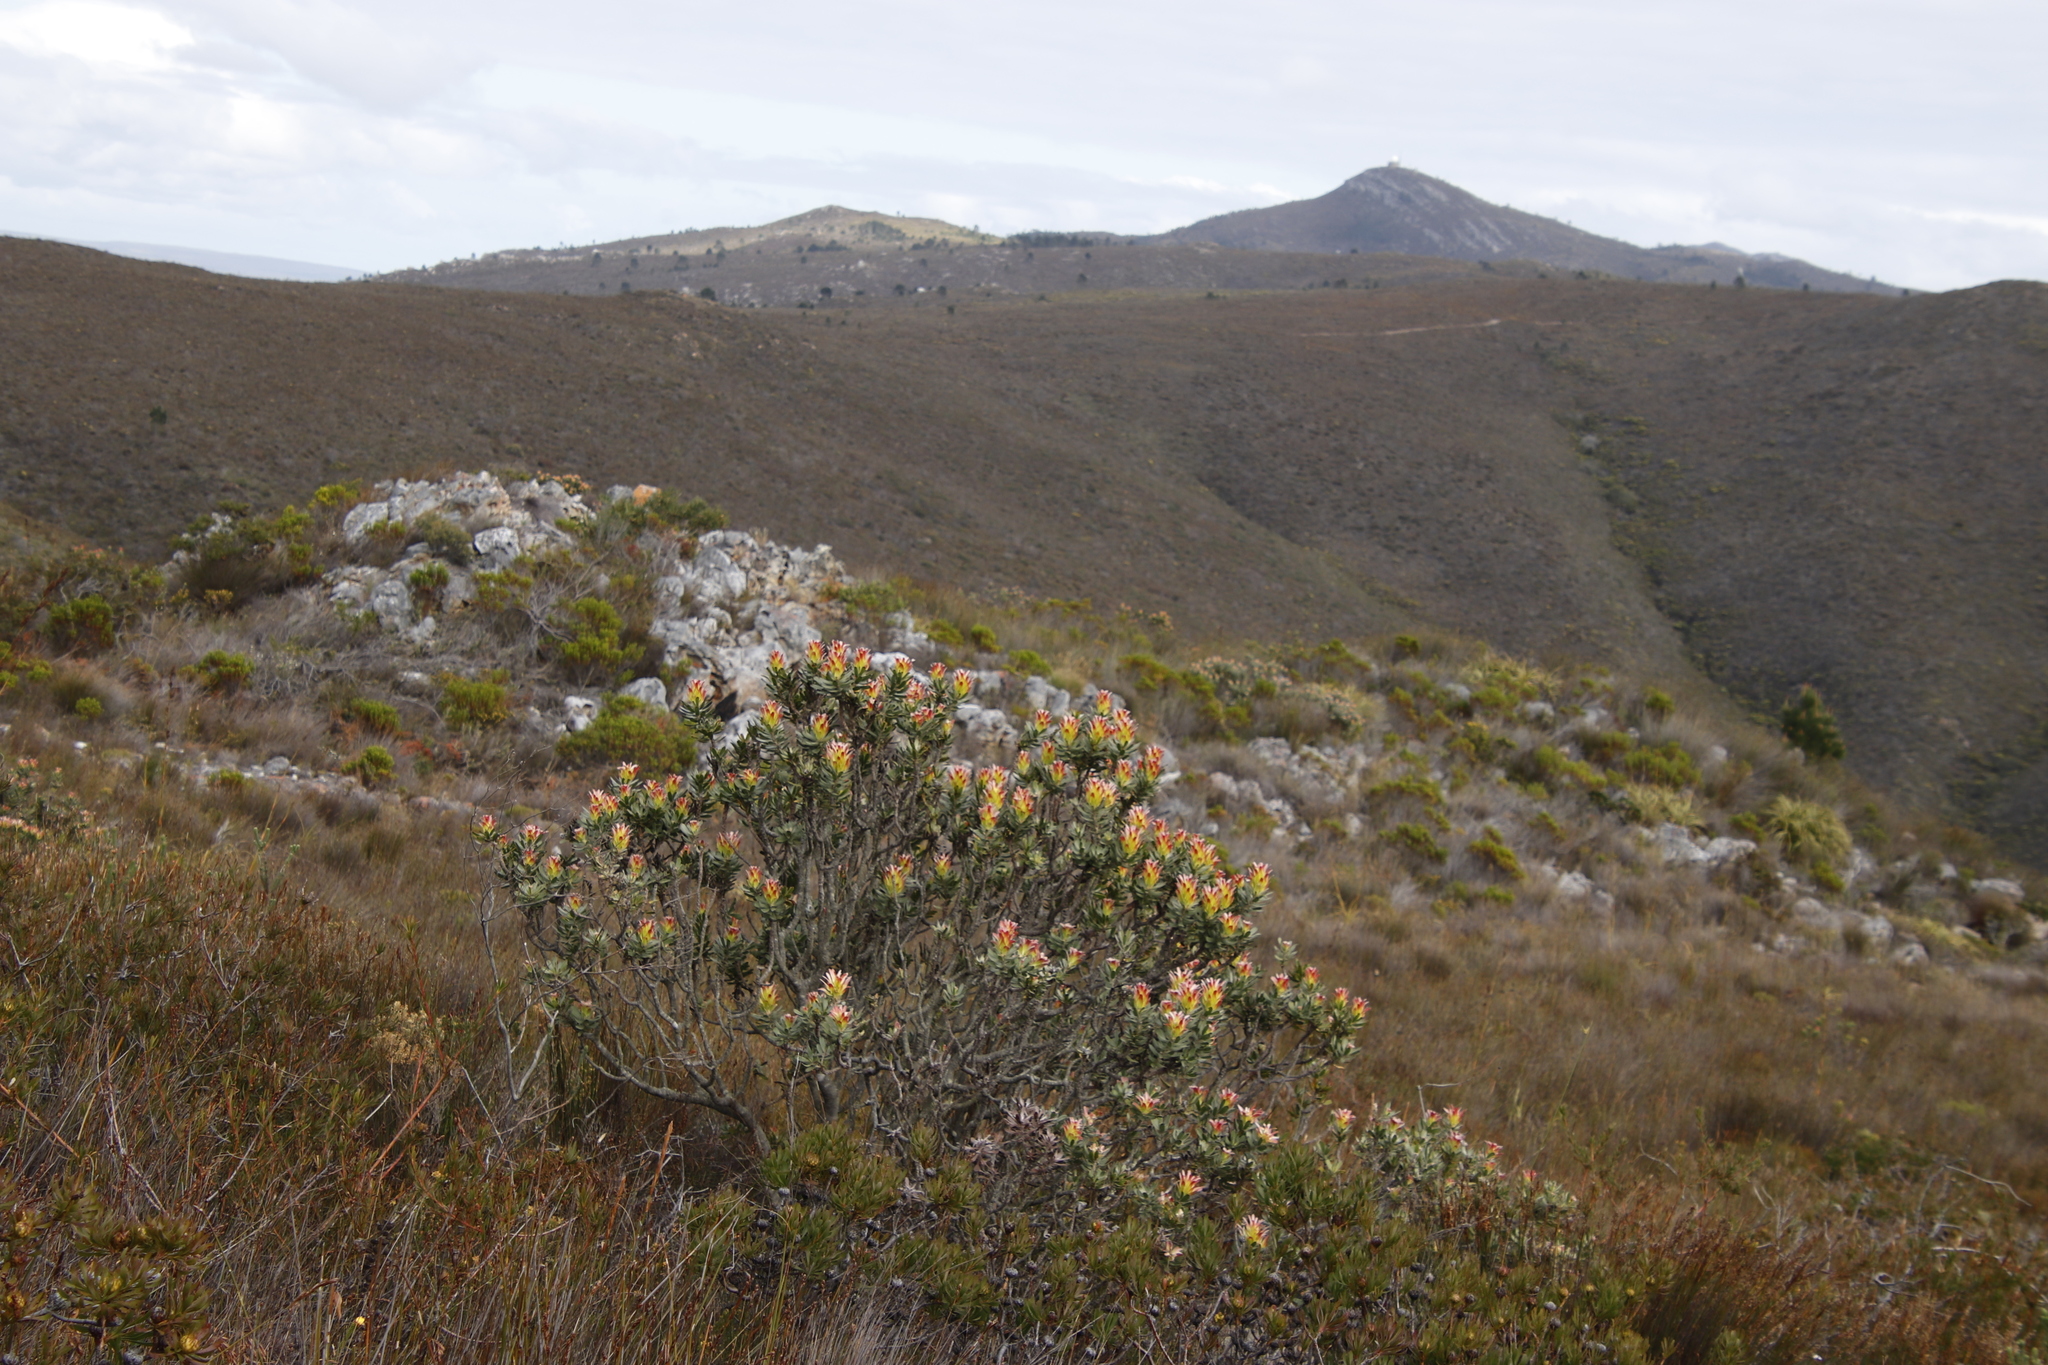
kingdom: Plantae
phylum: Tracheophyta
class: Magnoliopsida
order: Proteales
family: Proteaceae
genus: Mimetes
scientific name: Mimetes cucullatus
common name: Common pagoda
